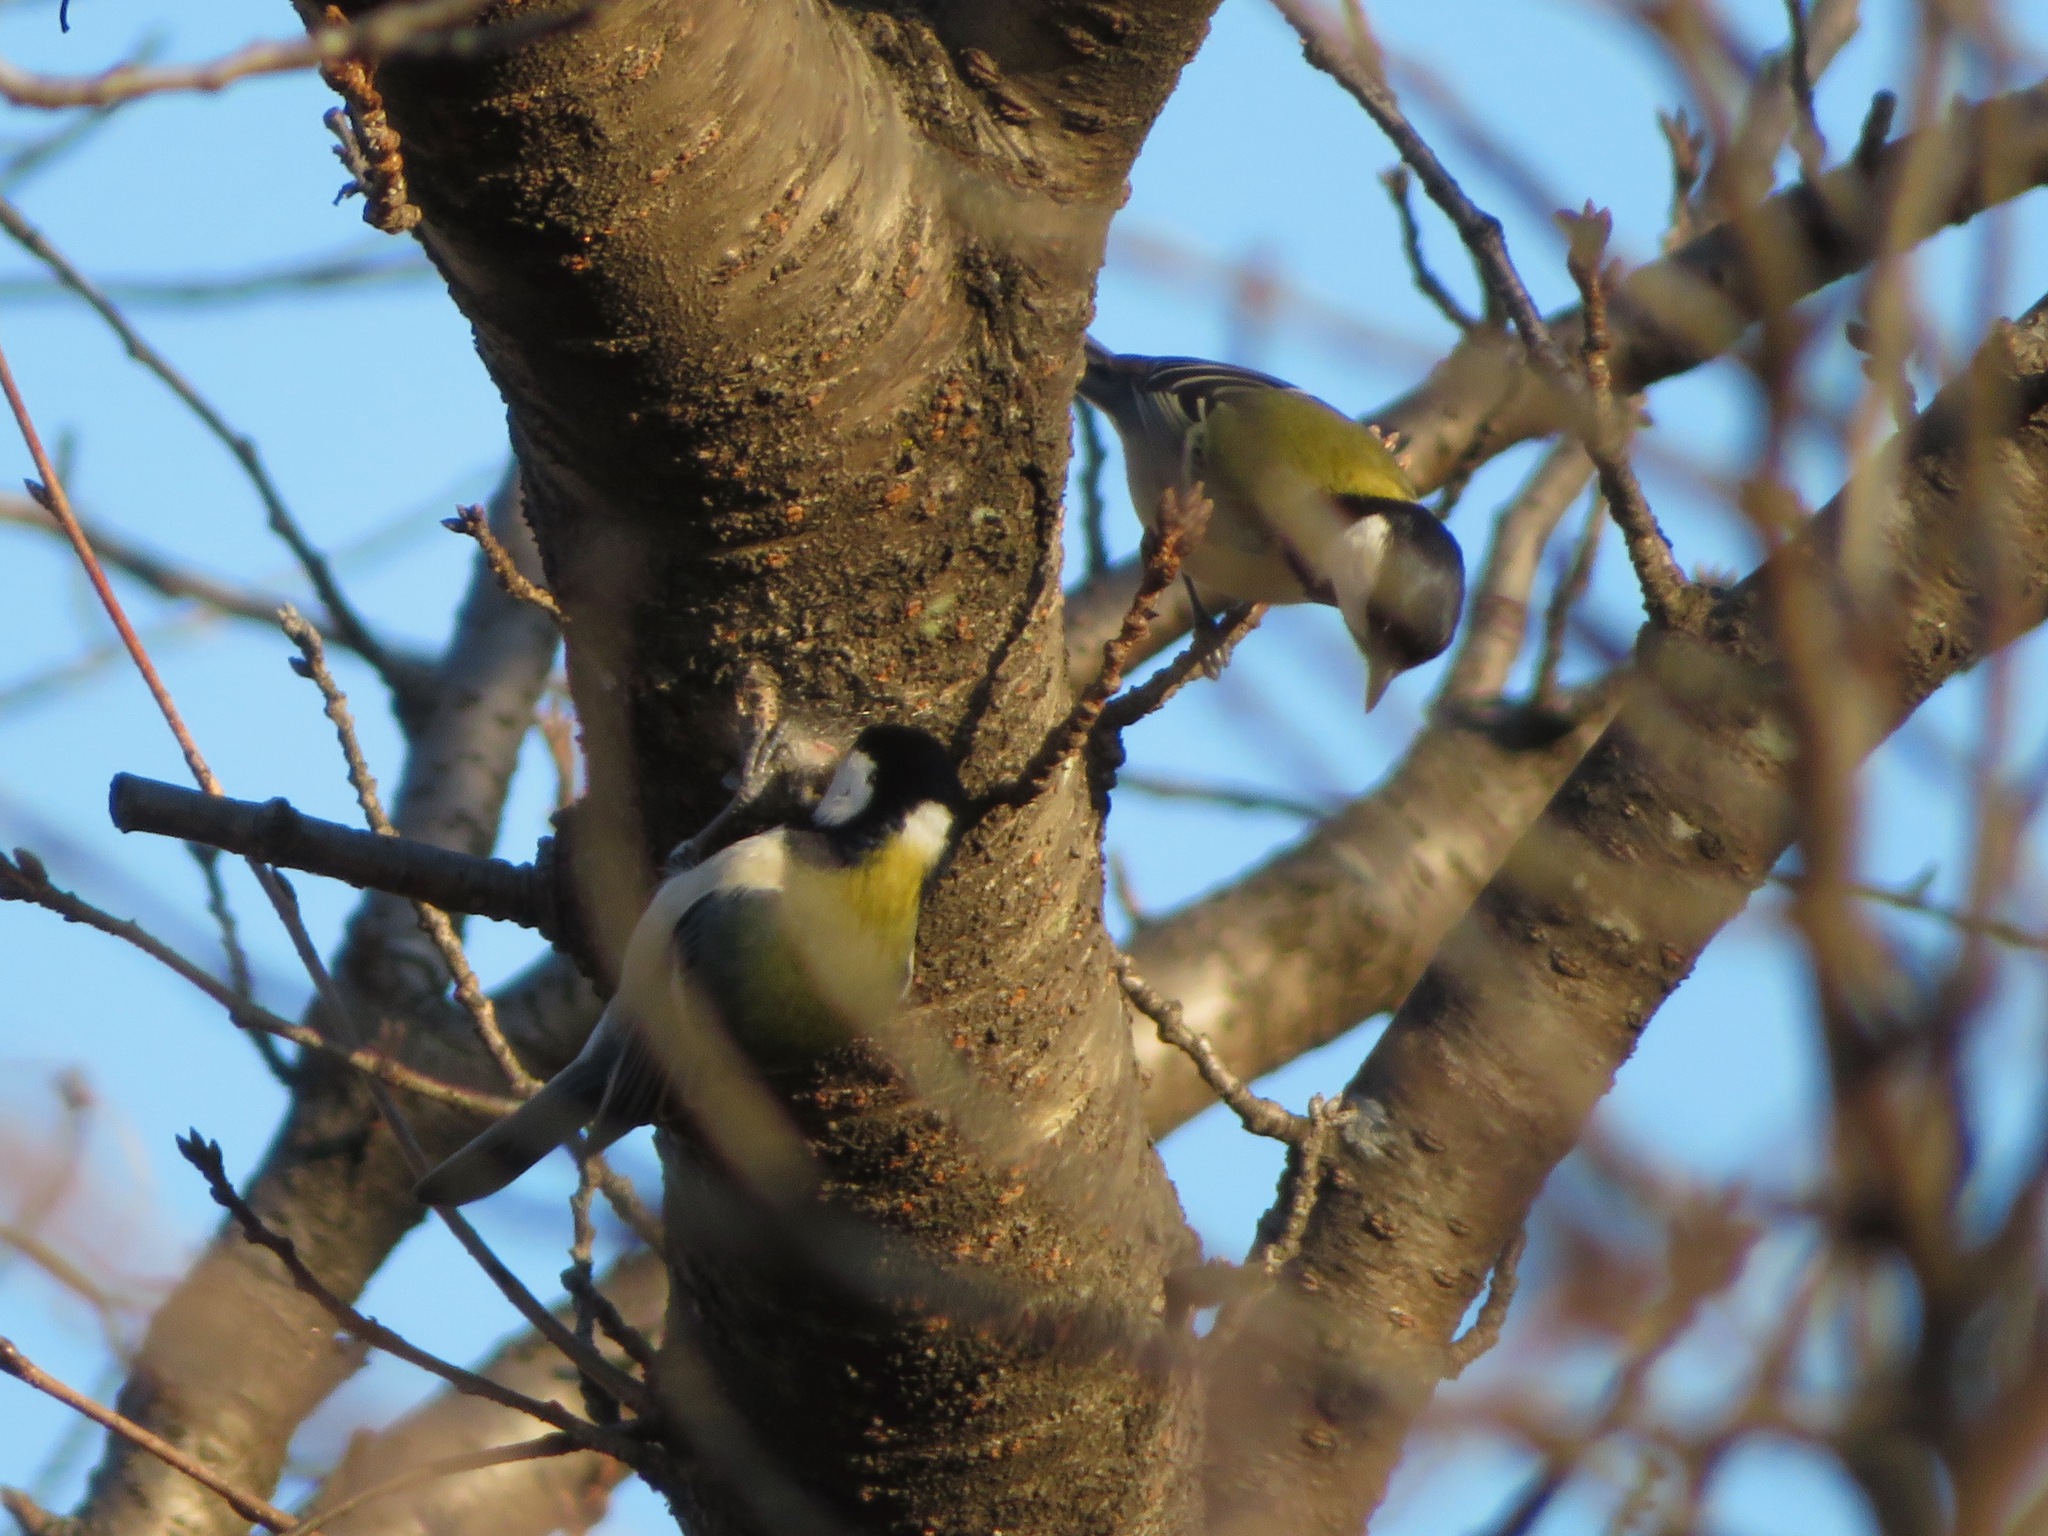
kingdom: Animalia
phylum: Chordata
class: Aves
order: Passeriformes
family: Paridae
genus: Parus
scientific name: Parus minor
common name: Japanese tit
